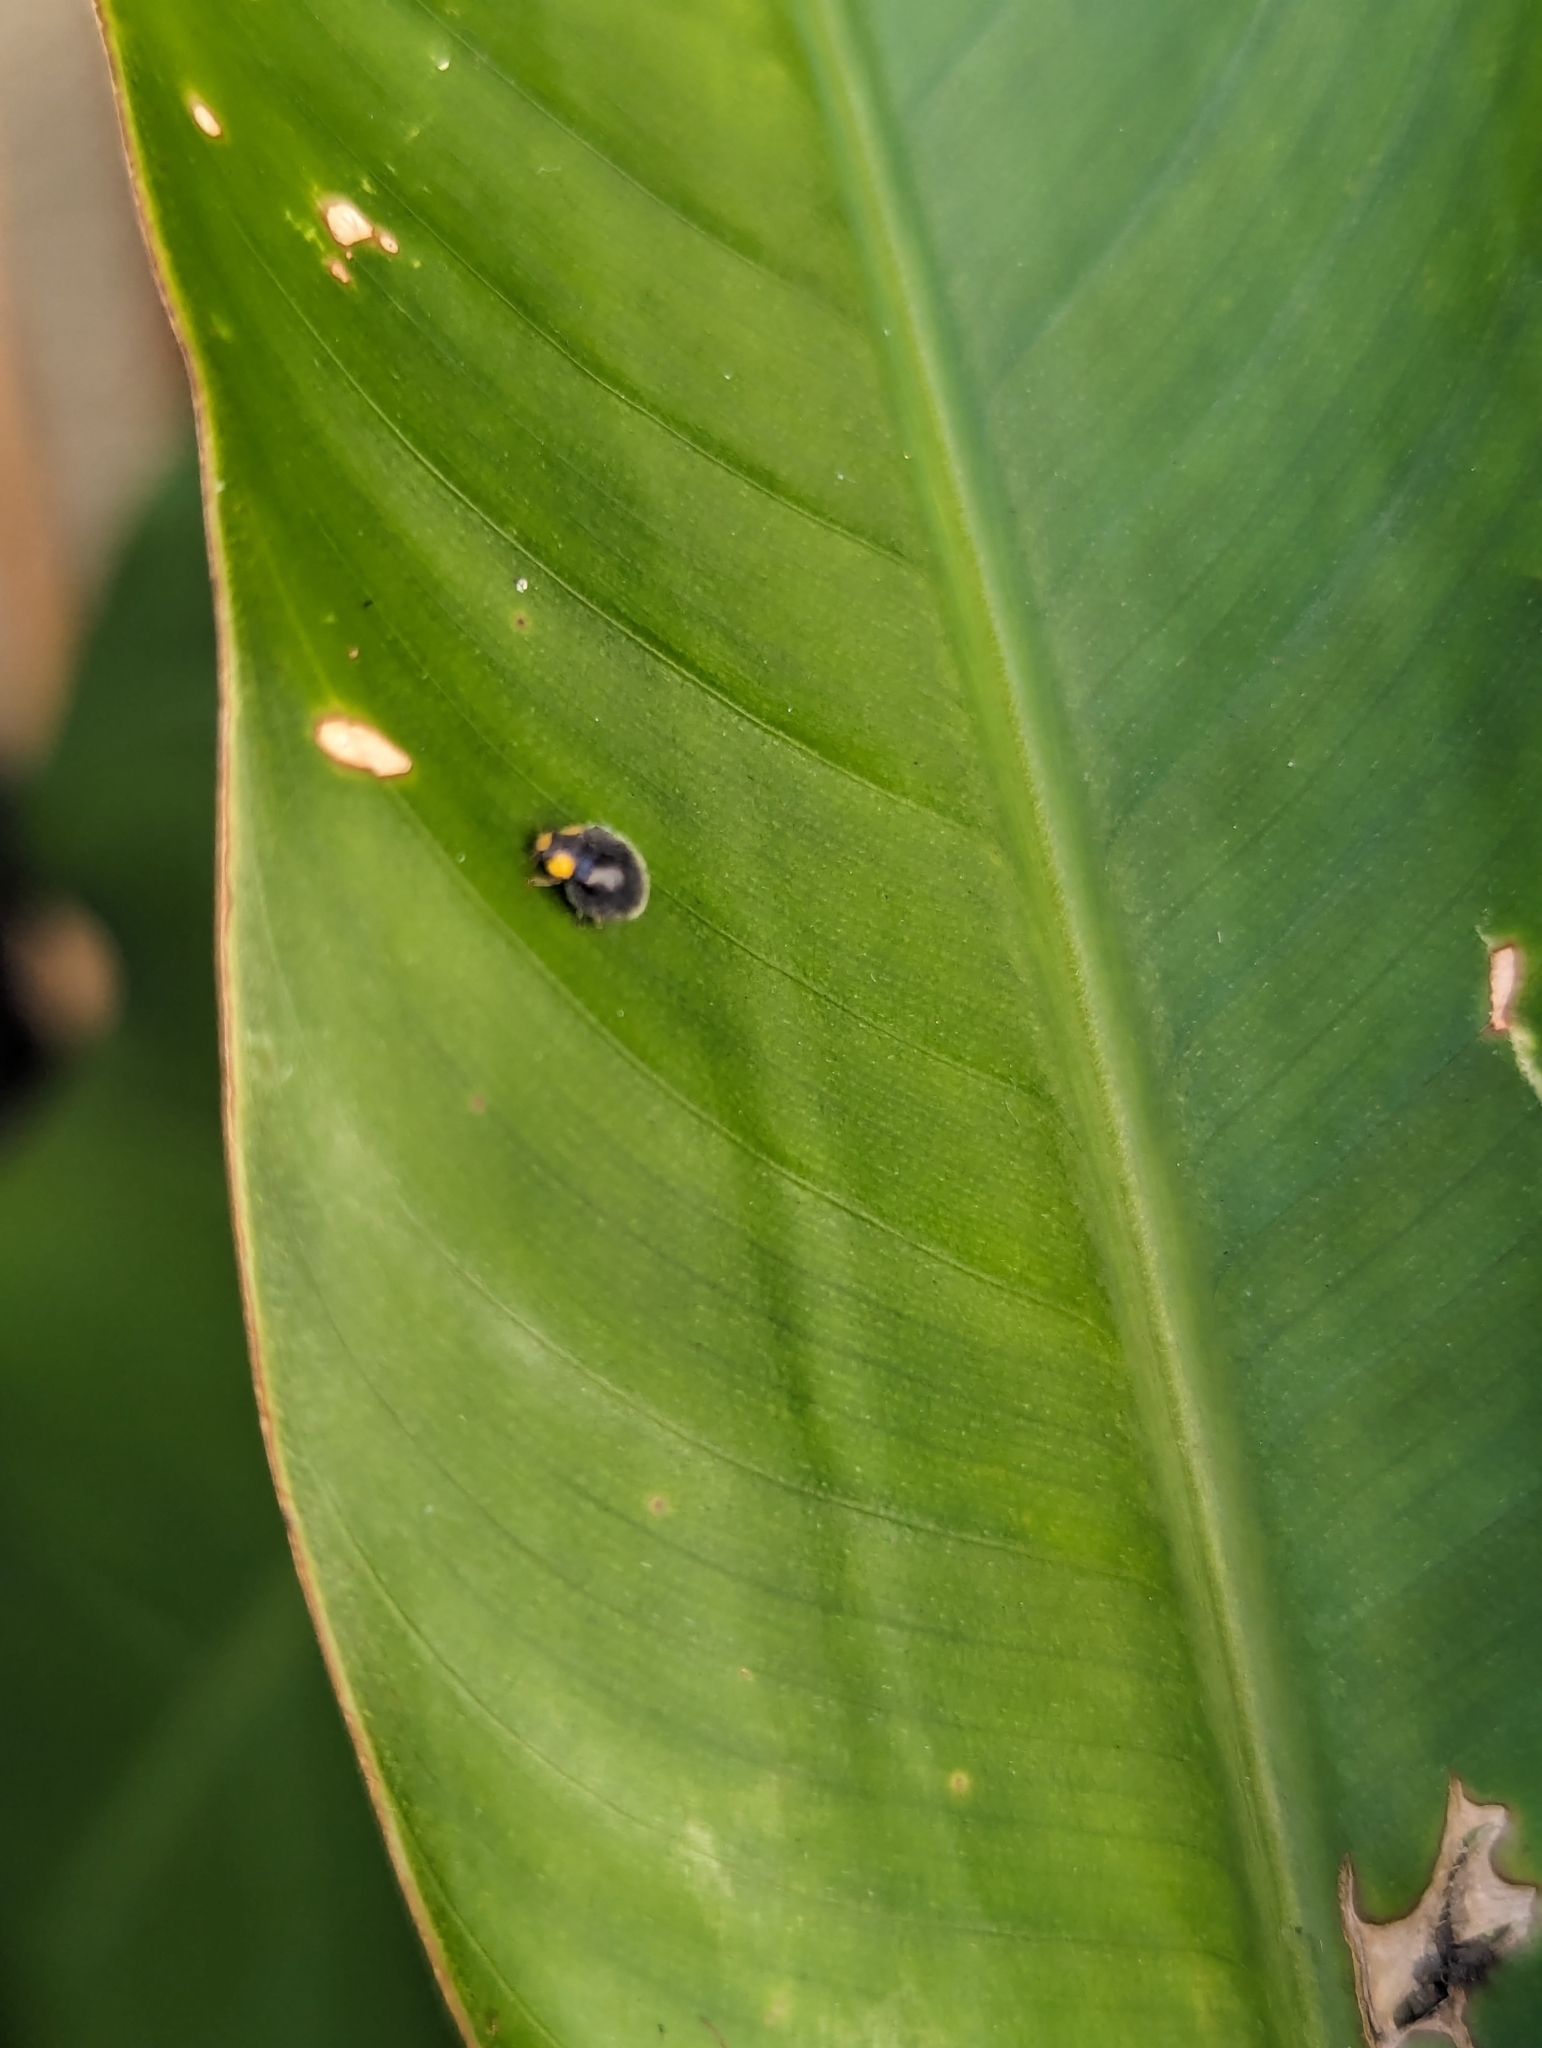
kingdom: Animalia
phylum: Arthropoda
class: Insecta
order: Coleoptera
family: Coccinellidae
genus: Scymnodes
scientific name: Scymnodes lividigaster
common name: Yellowshouldered lady beetle
